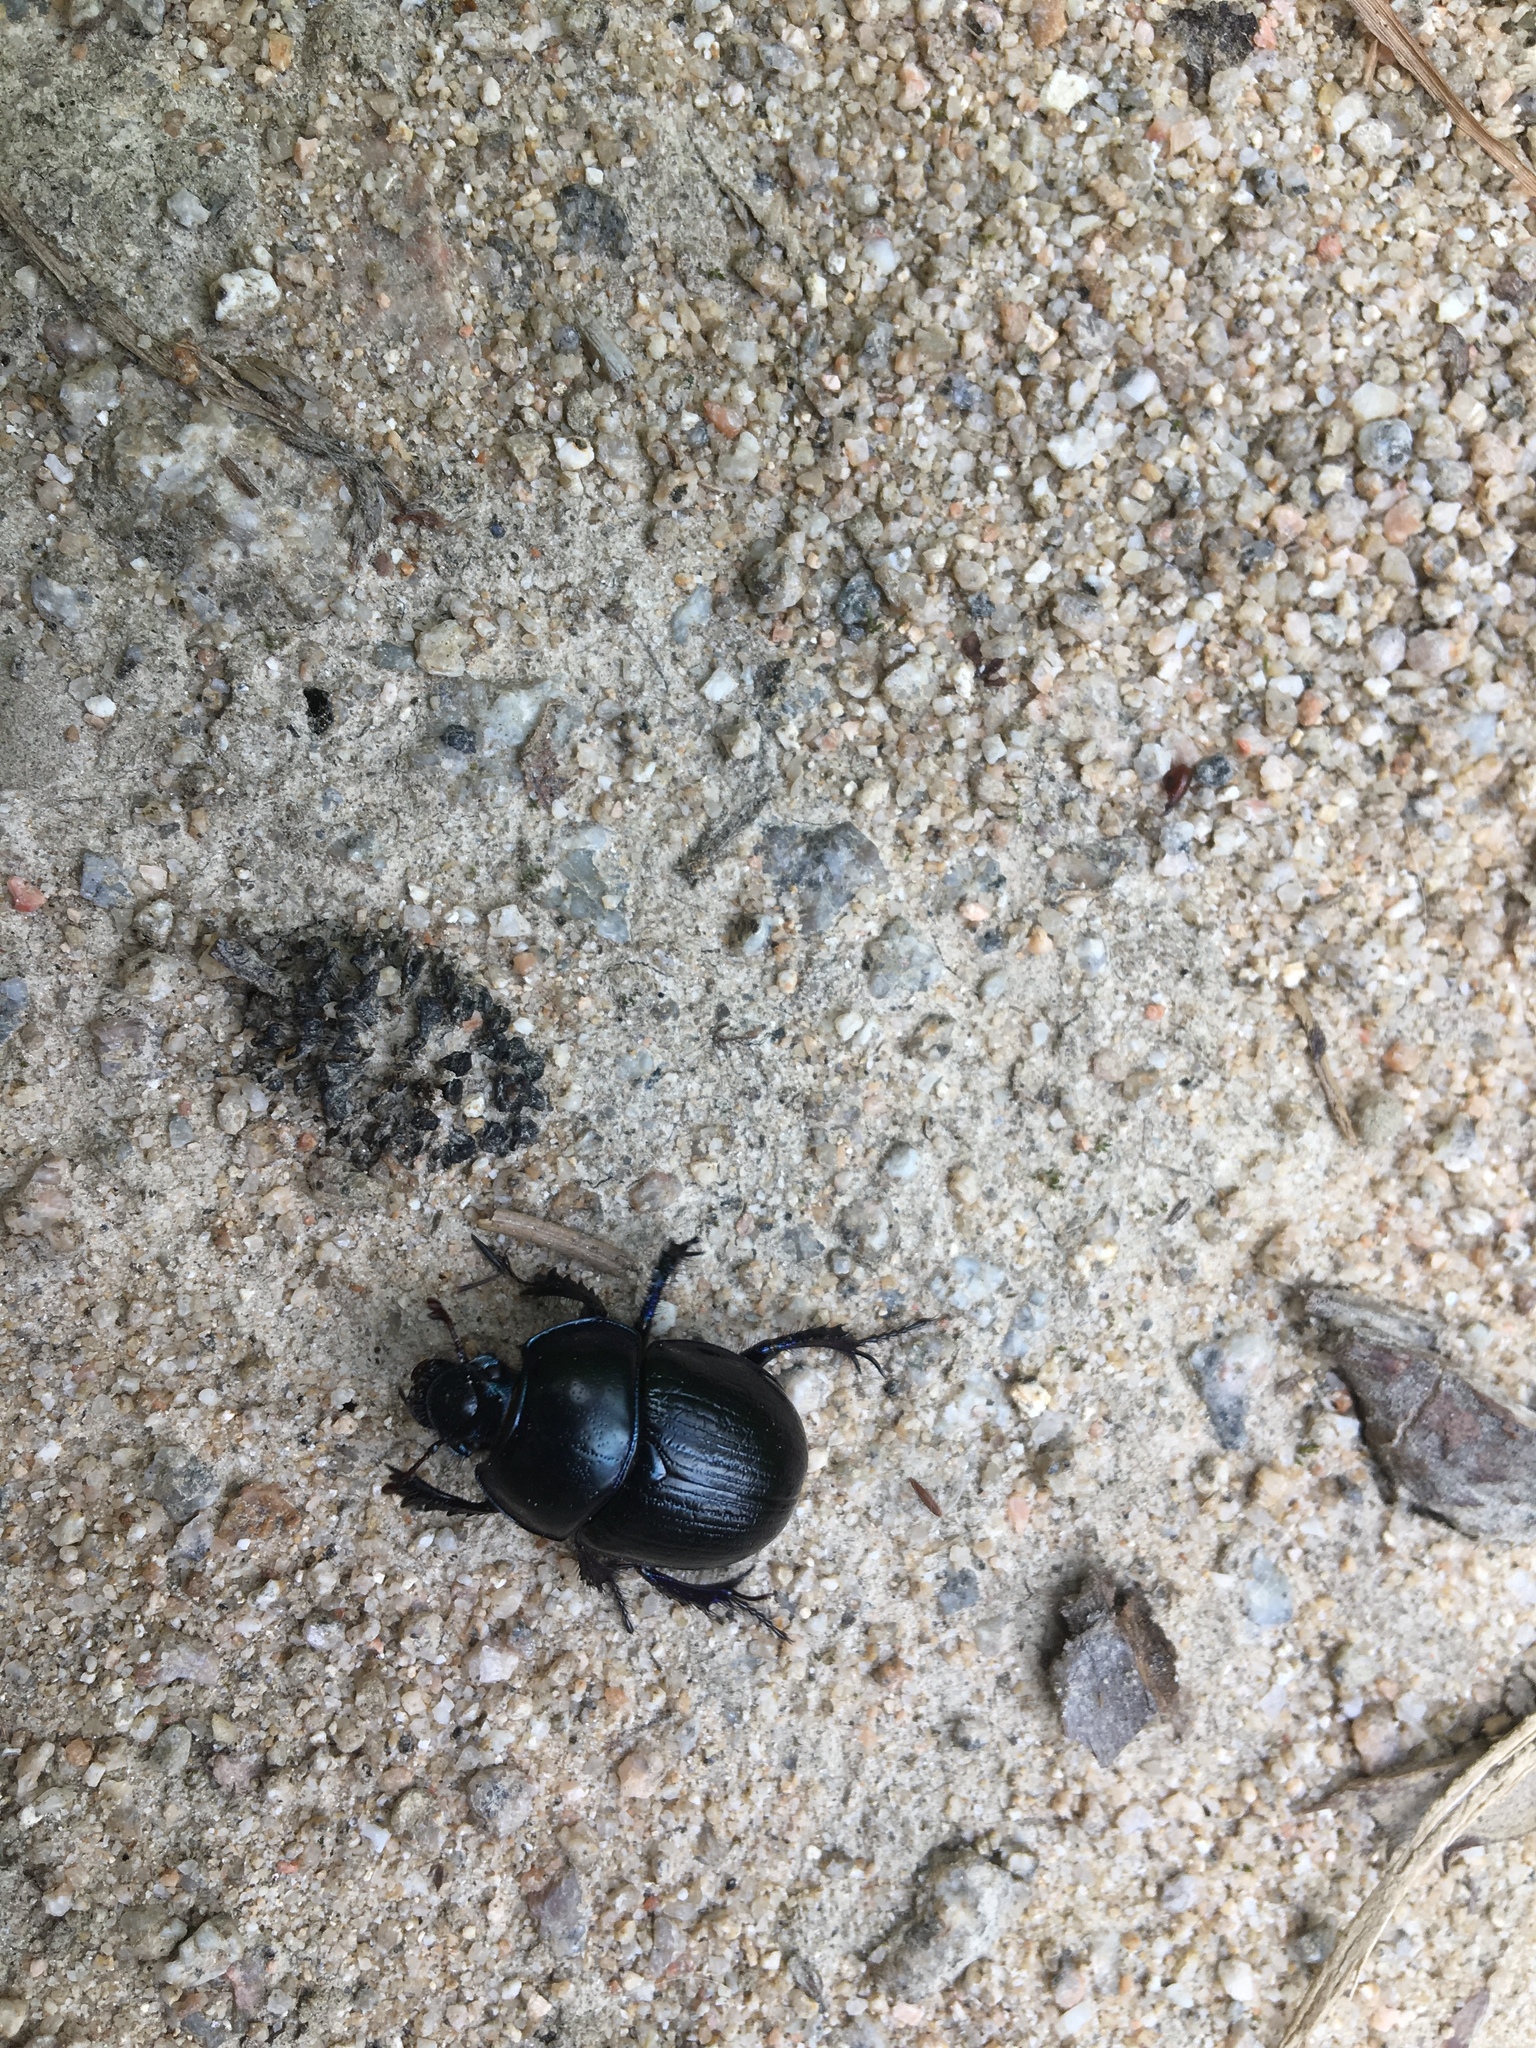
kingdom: Animalia
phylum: Arthropoda
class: Insecta
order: Coleoptera
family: Geotrupidae
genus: Anoplotrupes
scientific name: Anoplotrupes stercorosus
